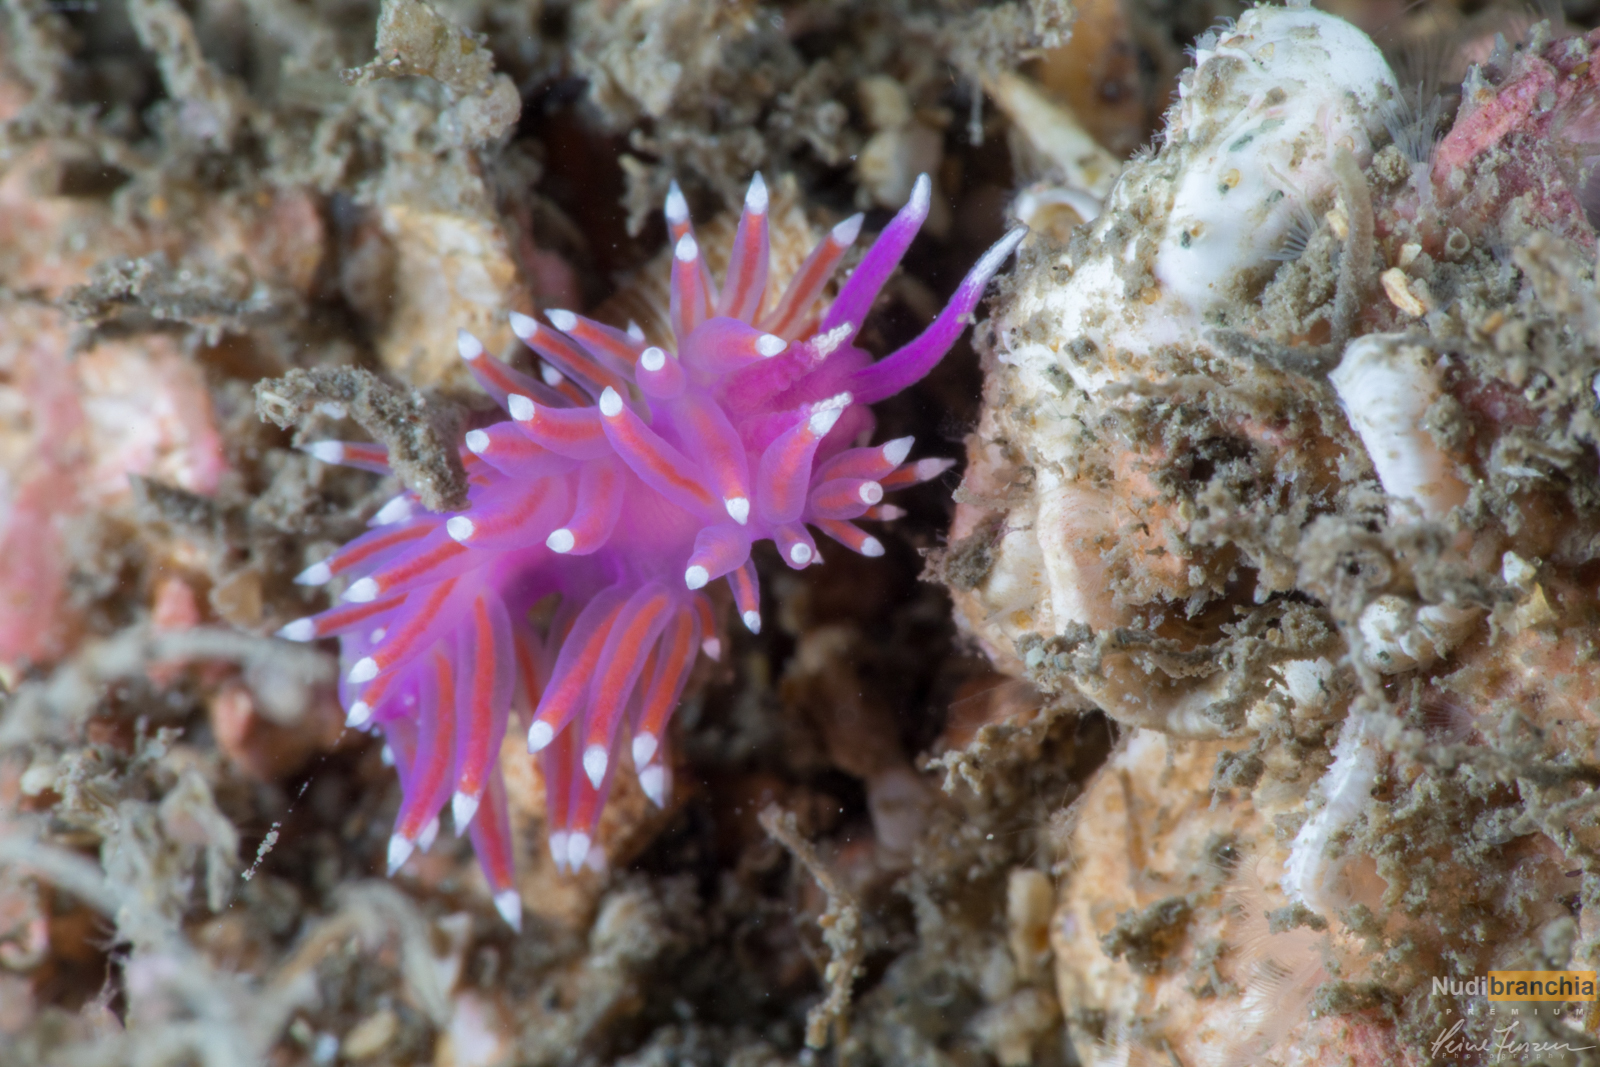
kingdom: Animalia
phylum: Mollusca
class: Gastropoda
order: Nudibranchia
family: Flabellinidae
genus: Edmundsella
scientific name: Edmundsella pedata
